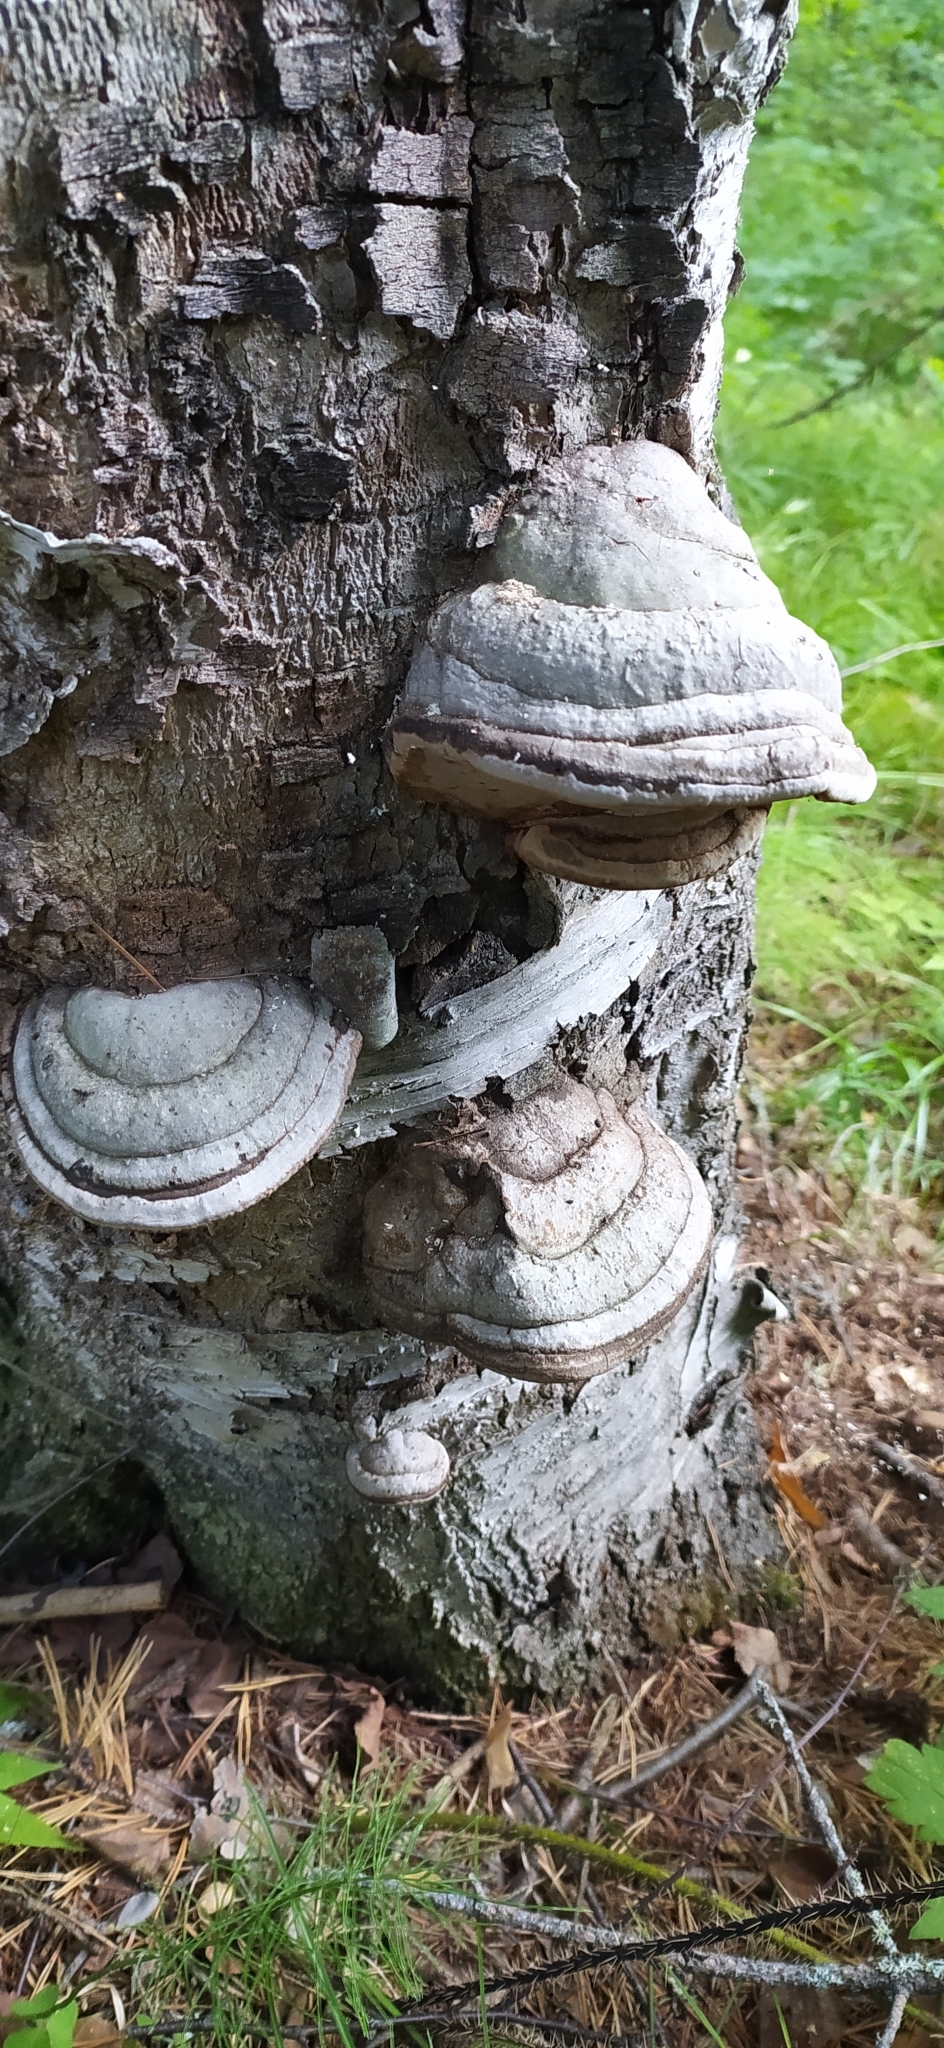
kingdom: Fungi
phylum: Basidiomycota
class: Agaricomycetes
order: Polyporales
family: Polyporaceae
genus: Fomes
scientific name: Fomes fomentarius
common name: Hoof fungus
